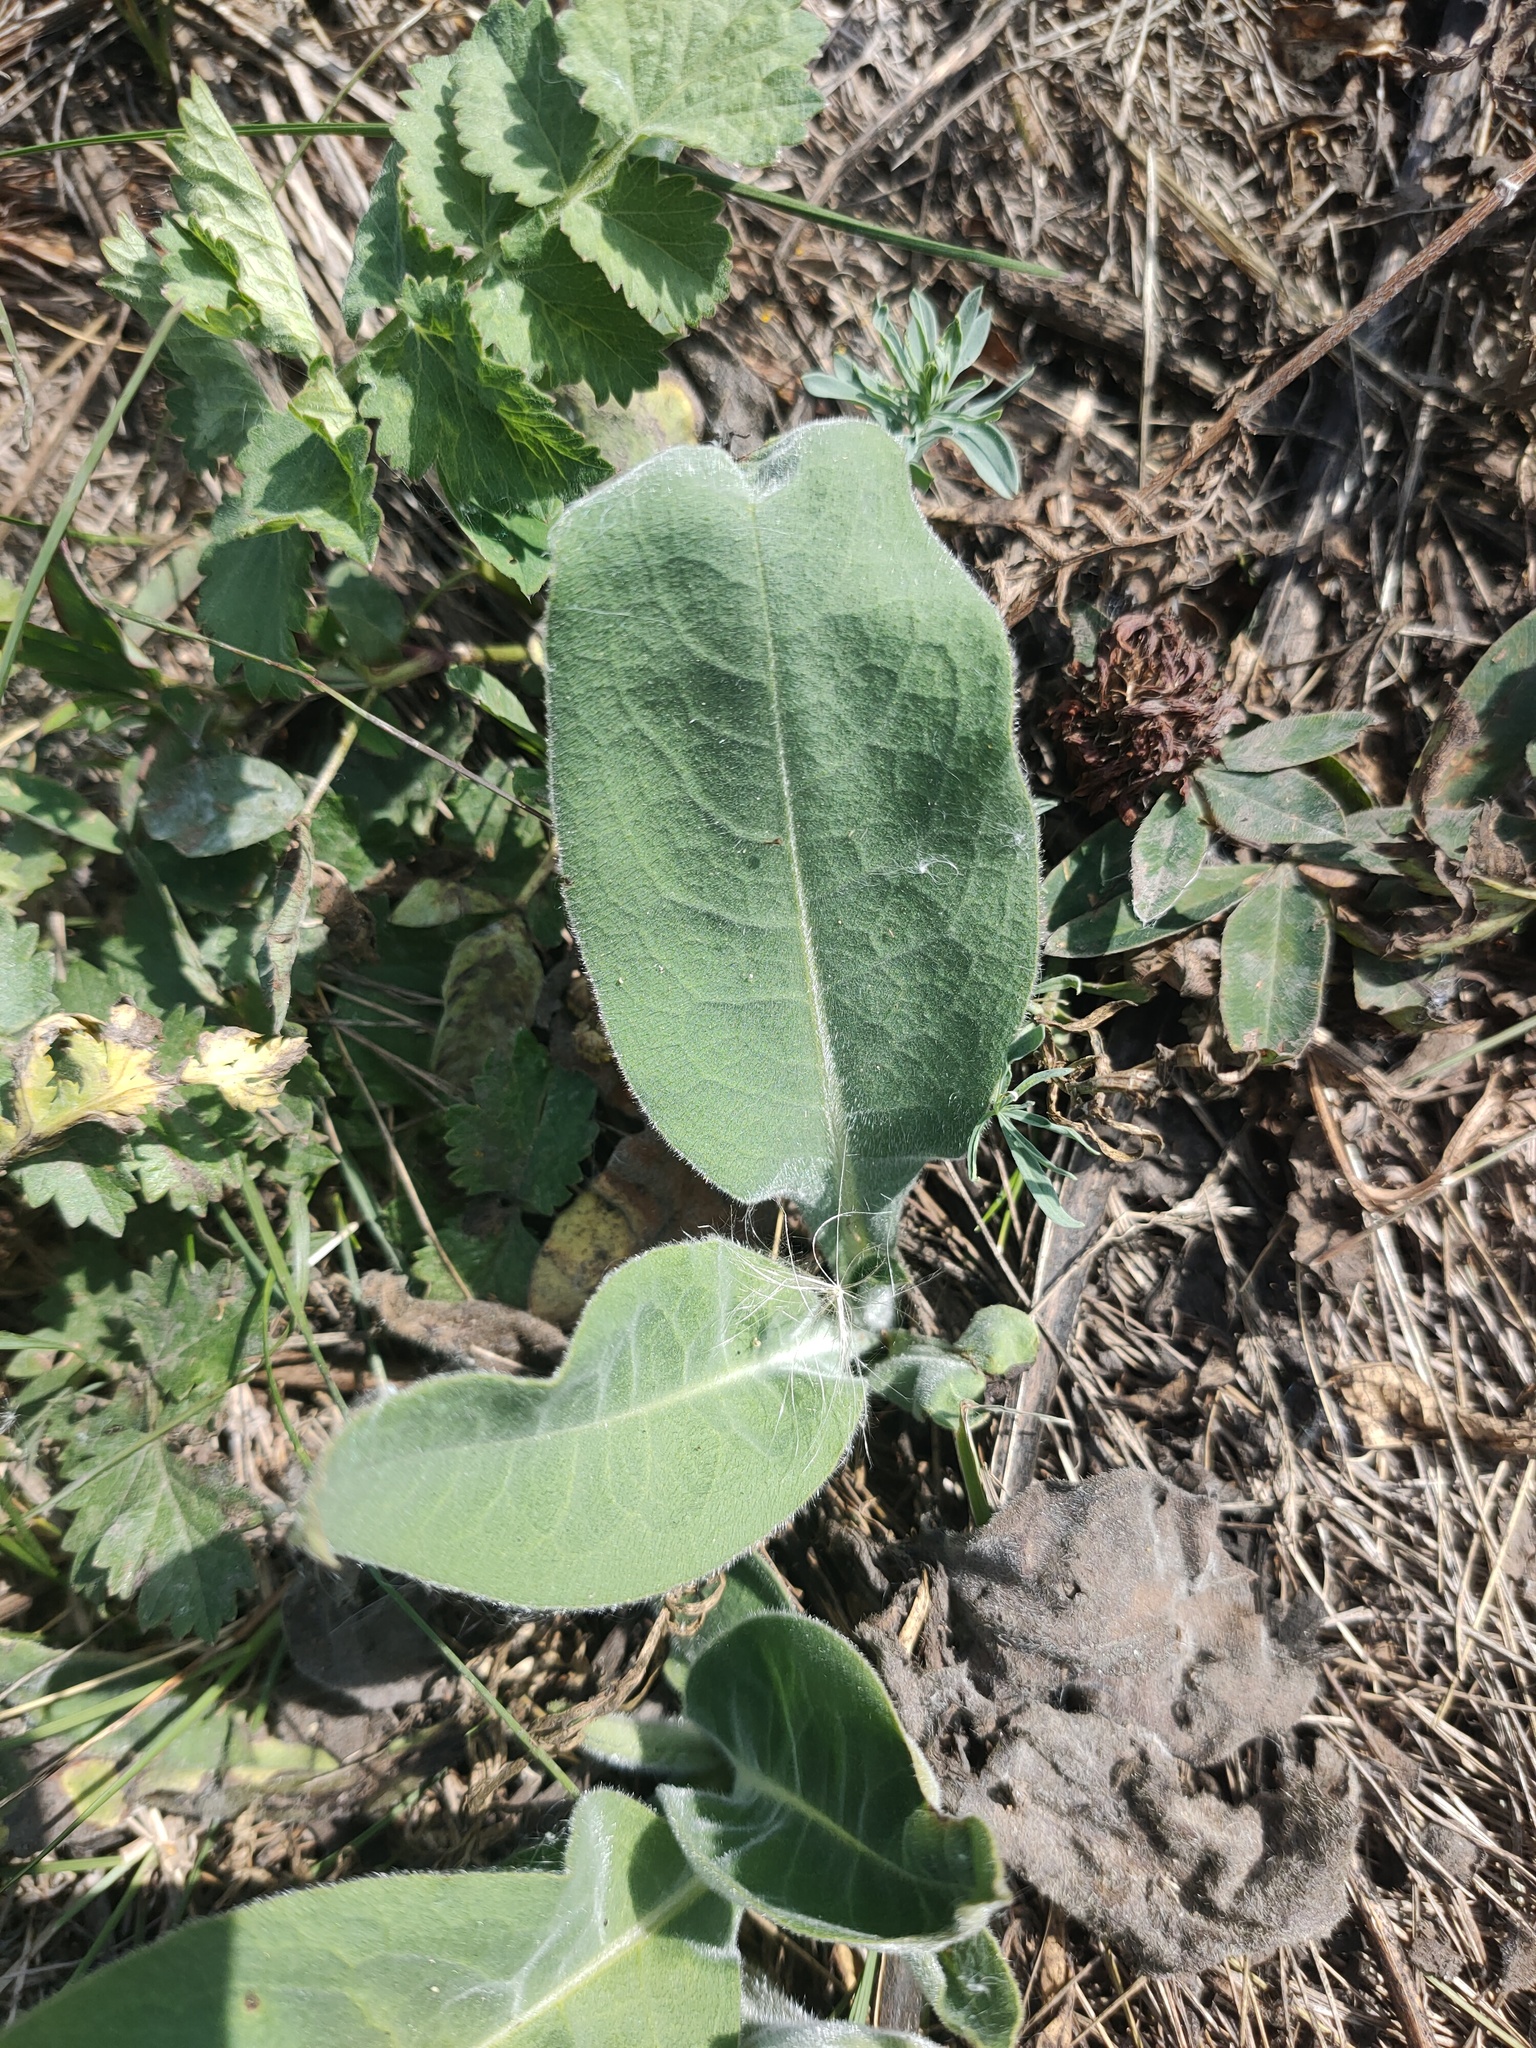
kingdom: Plantae
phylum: Tracheophyta
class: Magnoliopsida
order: Boraginales
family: Boraginaceae
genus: Pulmonaria
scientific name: Pulmonaria mollis
